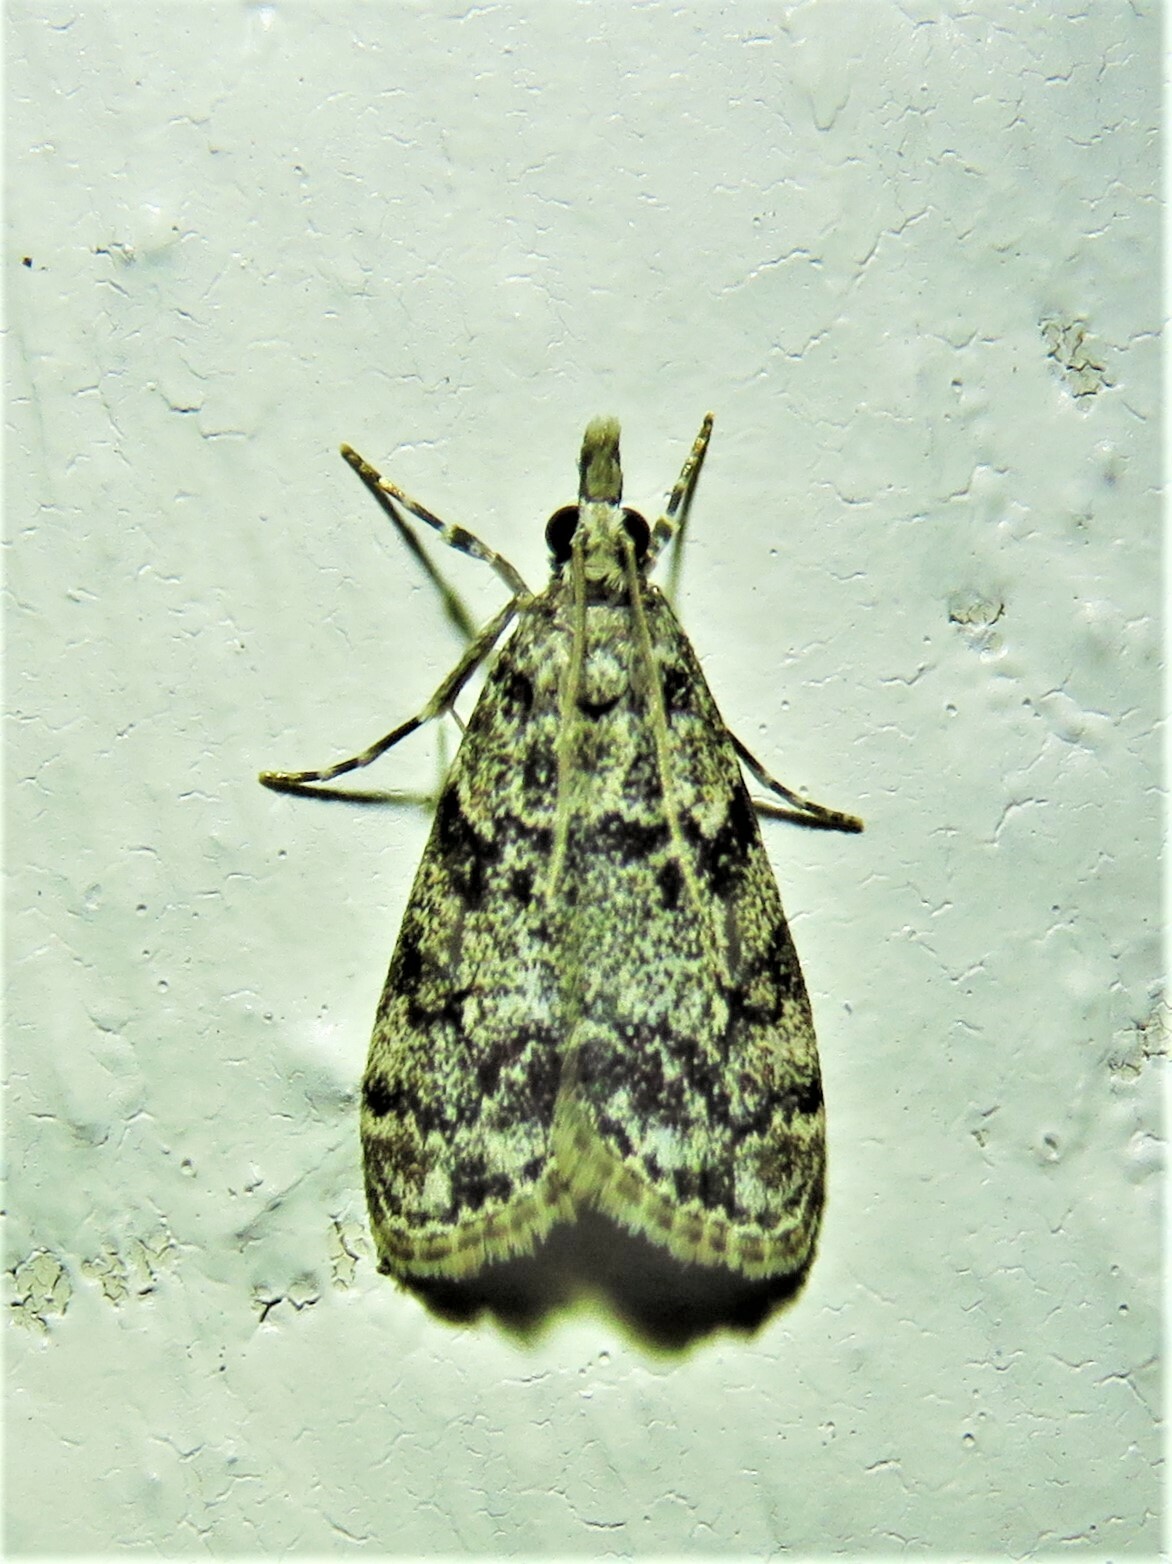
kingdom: Animalia
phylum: Arthropoda
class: Insecta
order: Lepidoptera
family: Crambidae
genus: Eudonia
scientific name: Eudonia lacustrata
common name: Little grey
